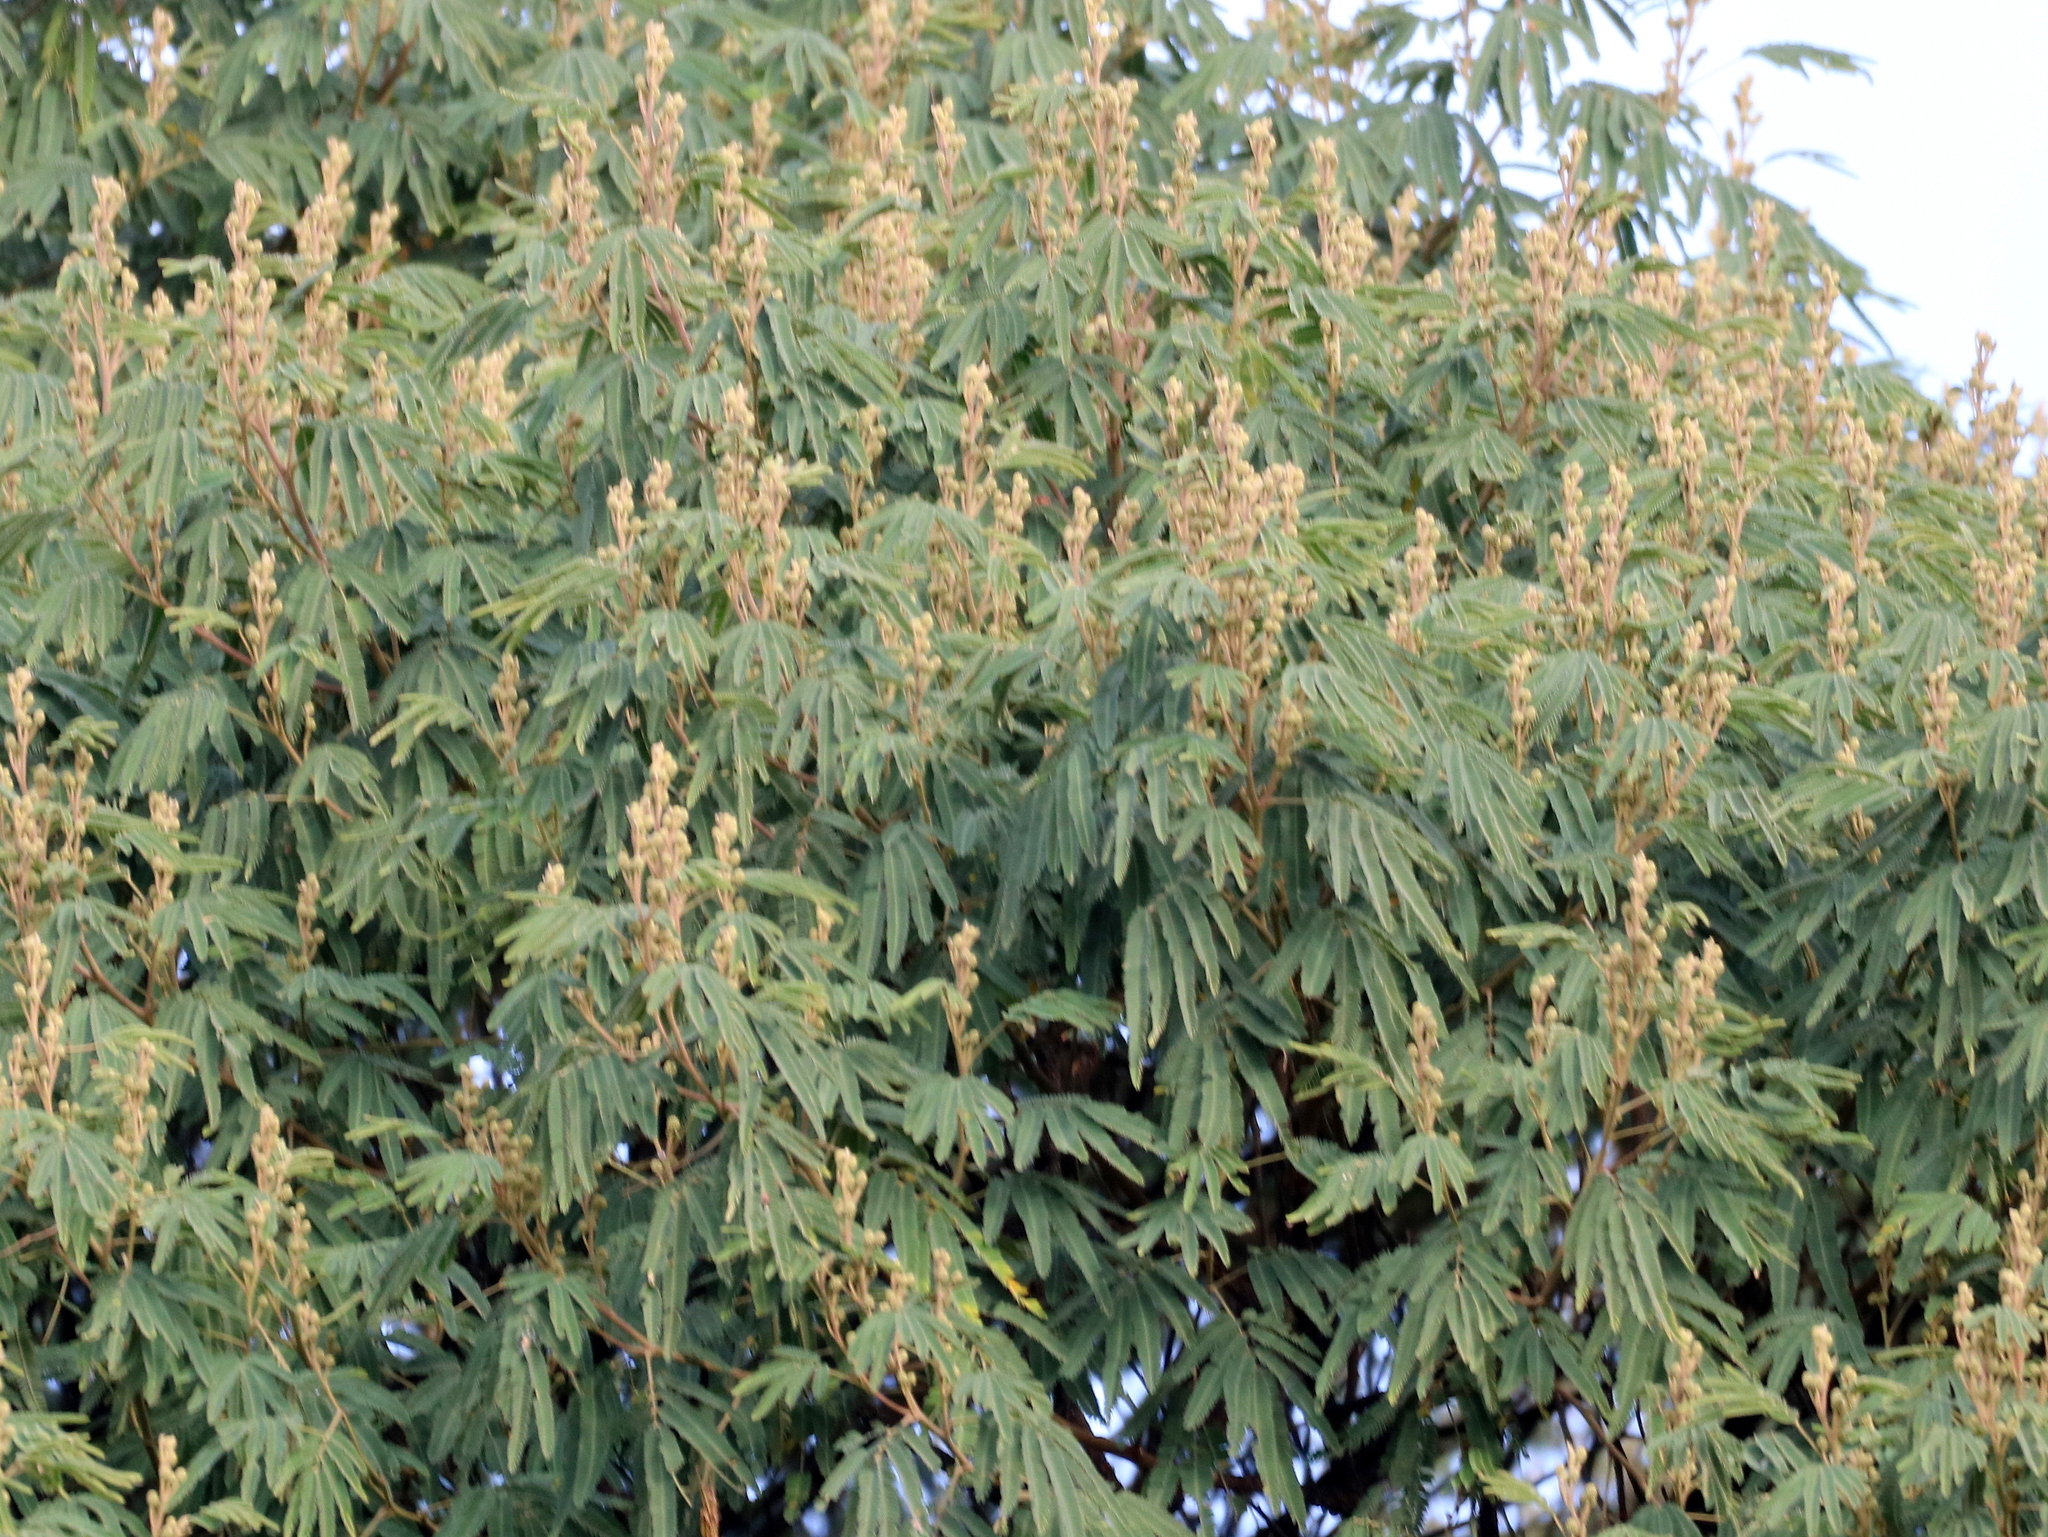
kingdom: Plantae
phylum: Tracheophyta
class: Magnoliopsida
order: Fabales
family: Fabaceae
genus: Mimosa
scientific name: Mimosa scabrella
